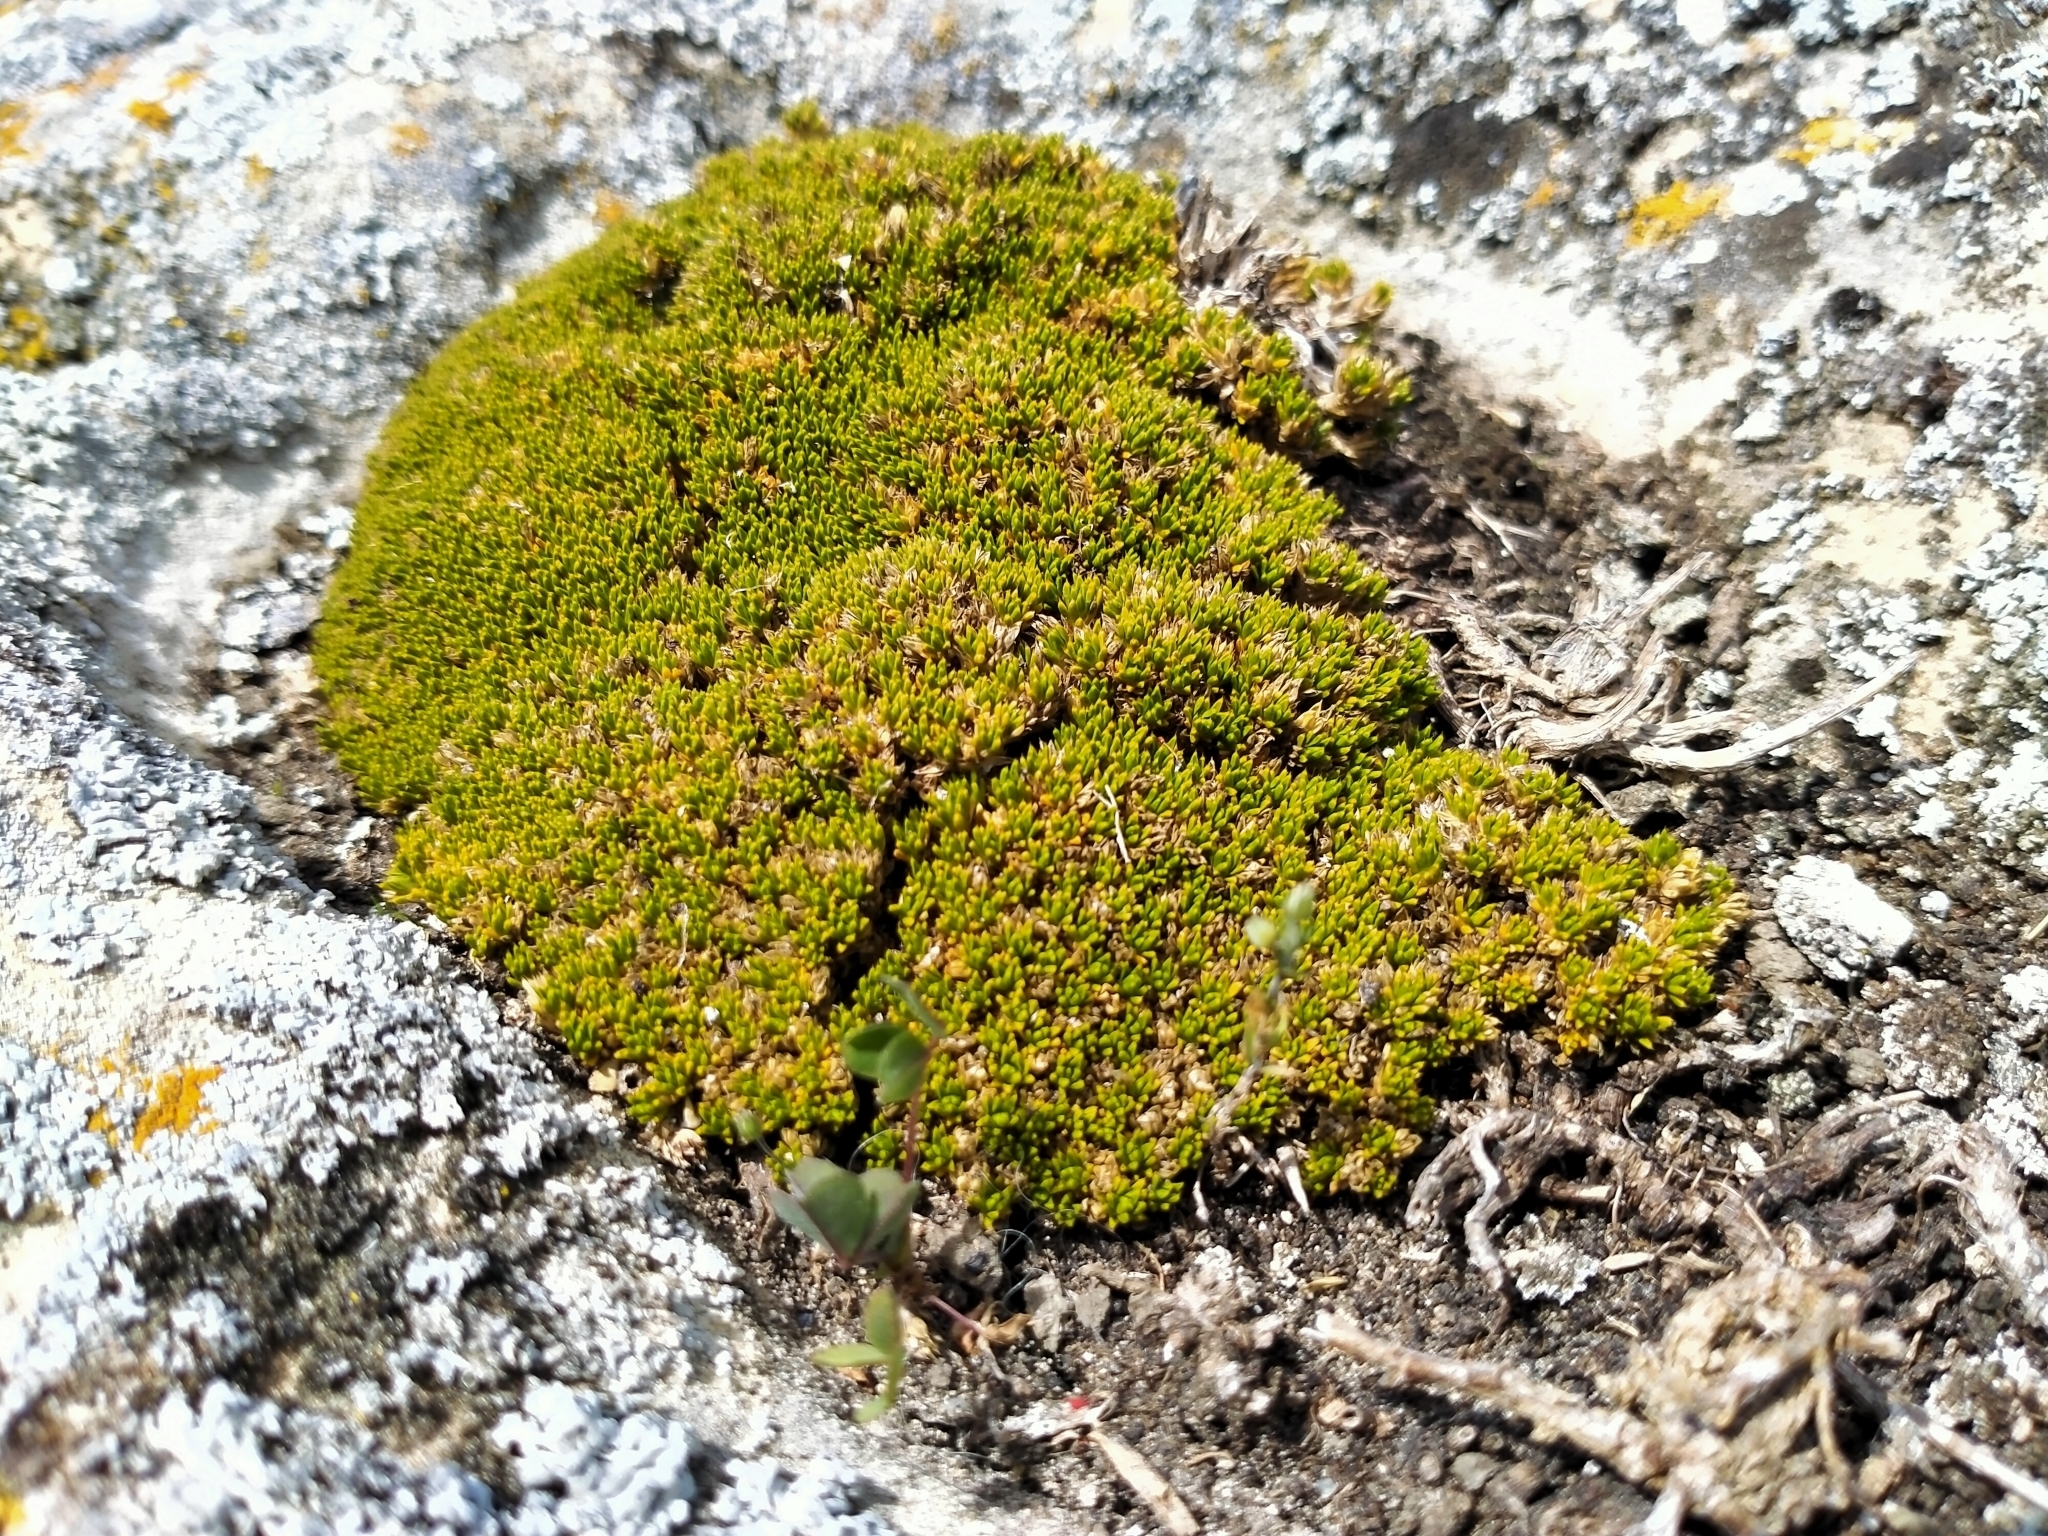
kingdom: Plantae
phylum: Tracheophyta
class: Magnoliopsida
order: Caryophyllales
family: Caryophyllaceae
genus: Colobanthus
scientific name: Colobanthus brevisepalus
